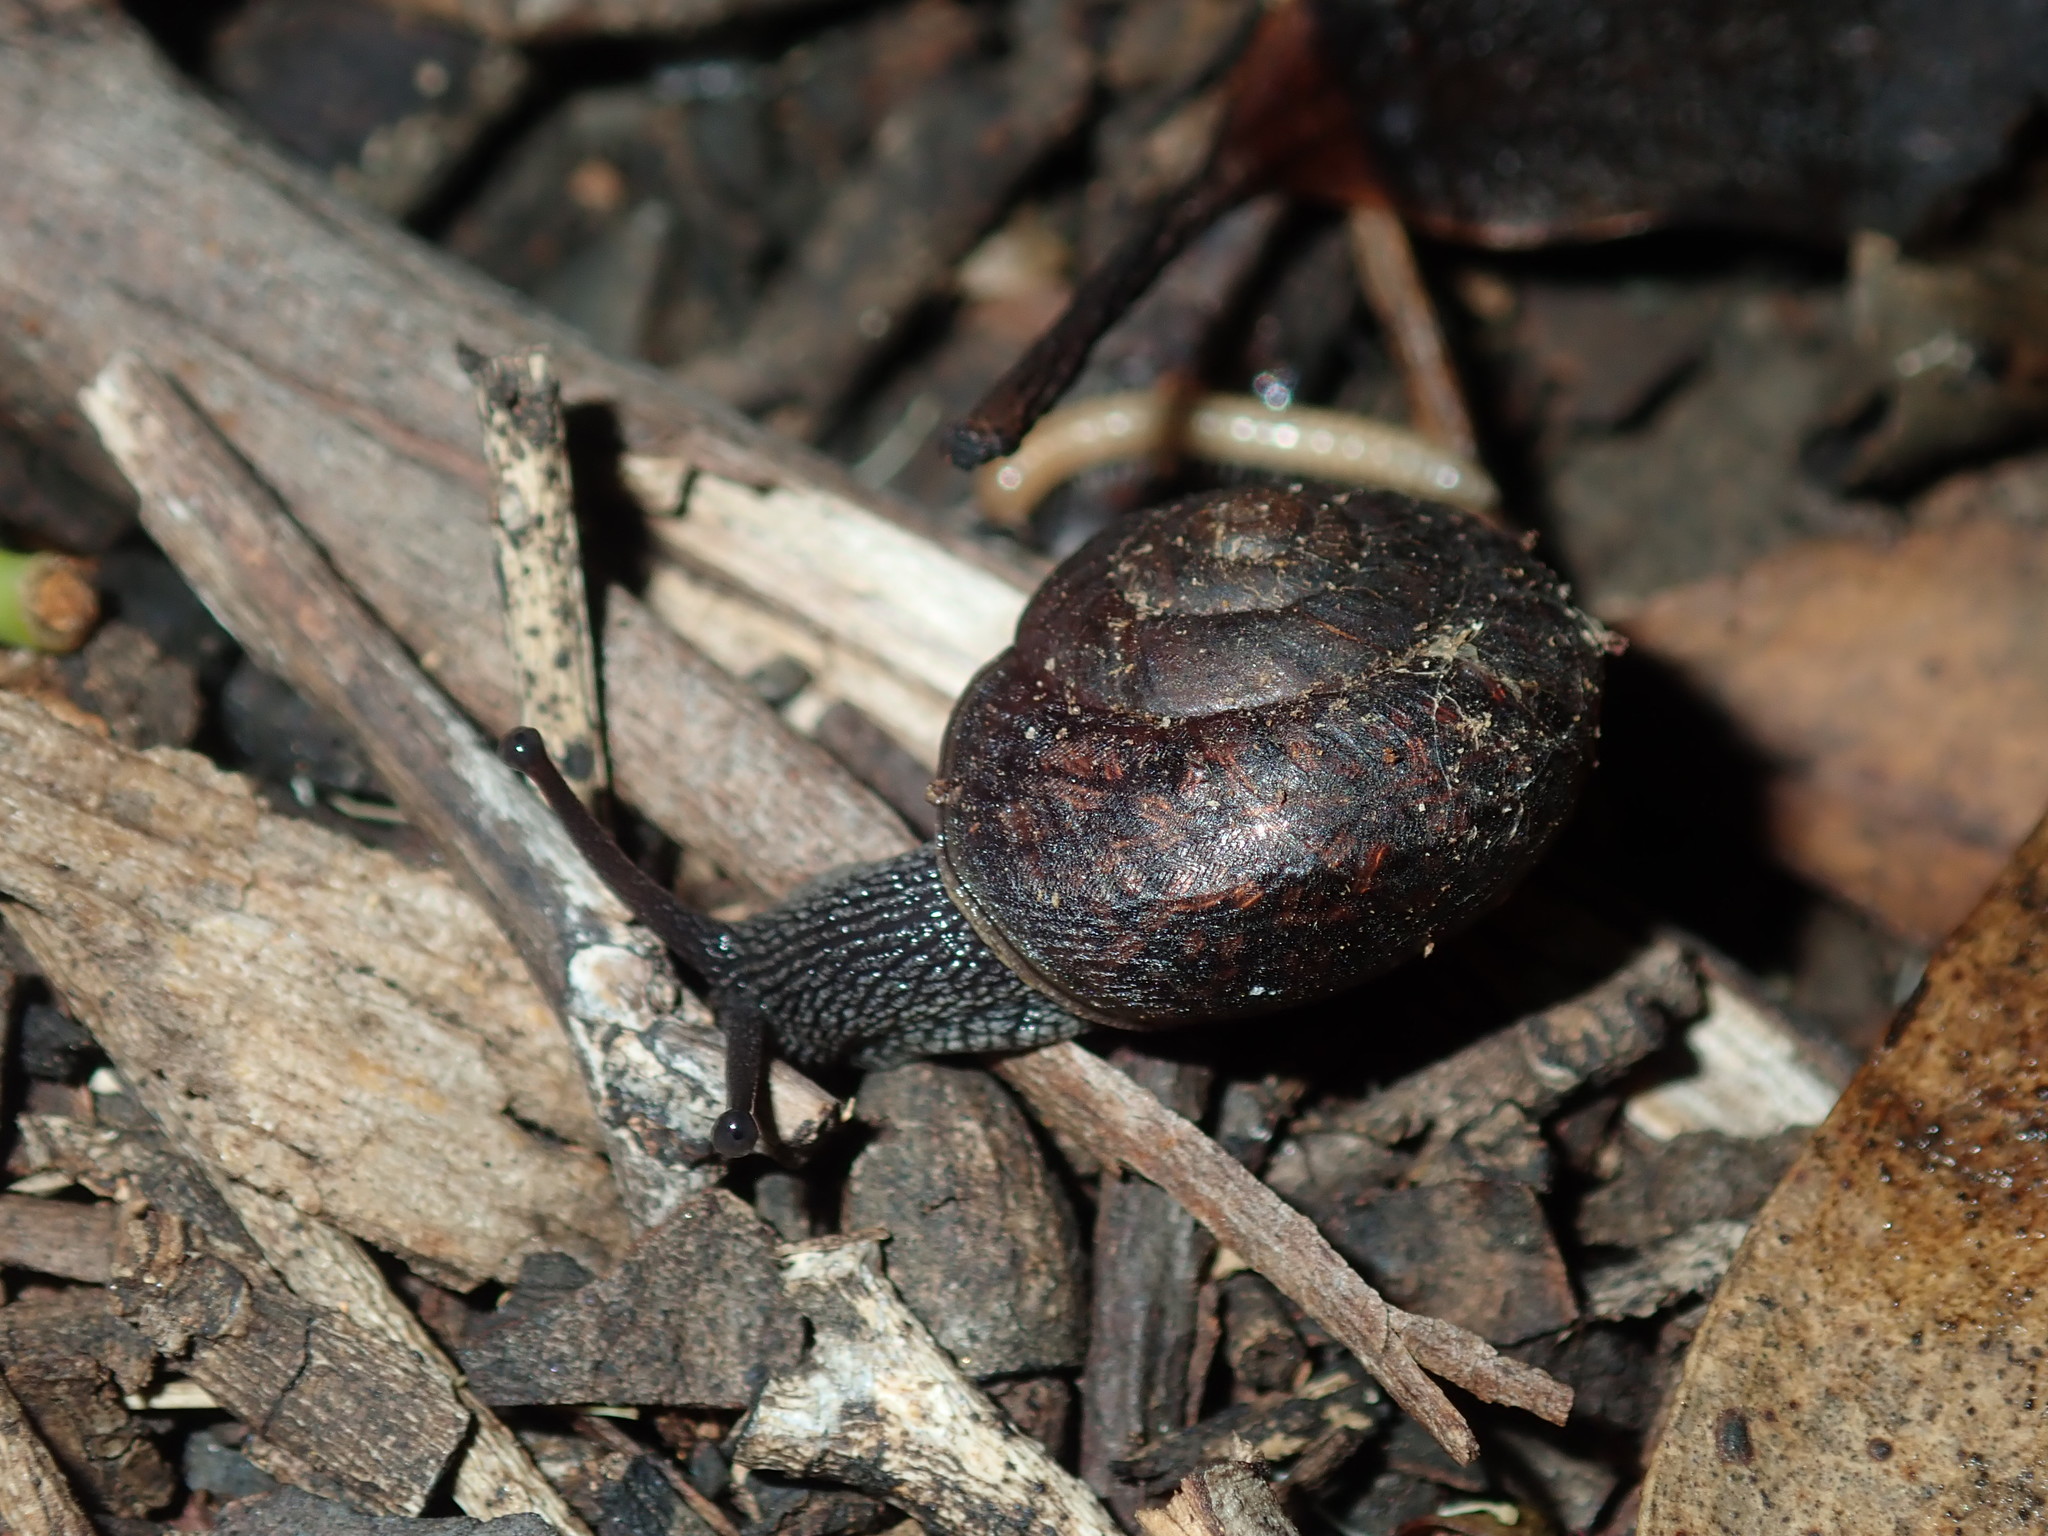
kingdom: Animalia
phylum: Mollusca
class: Gastropoda
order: Stylommatophora
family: Camaenidae
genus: Sauroconcha
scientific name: Sauroconcha sheai
